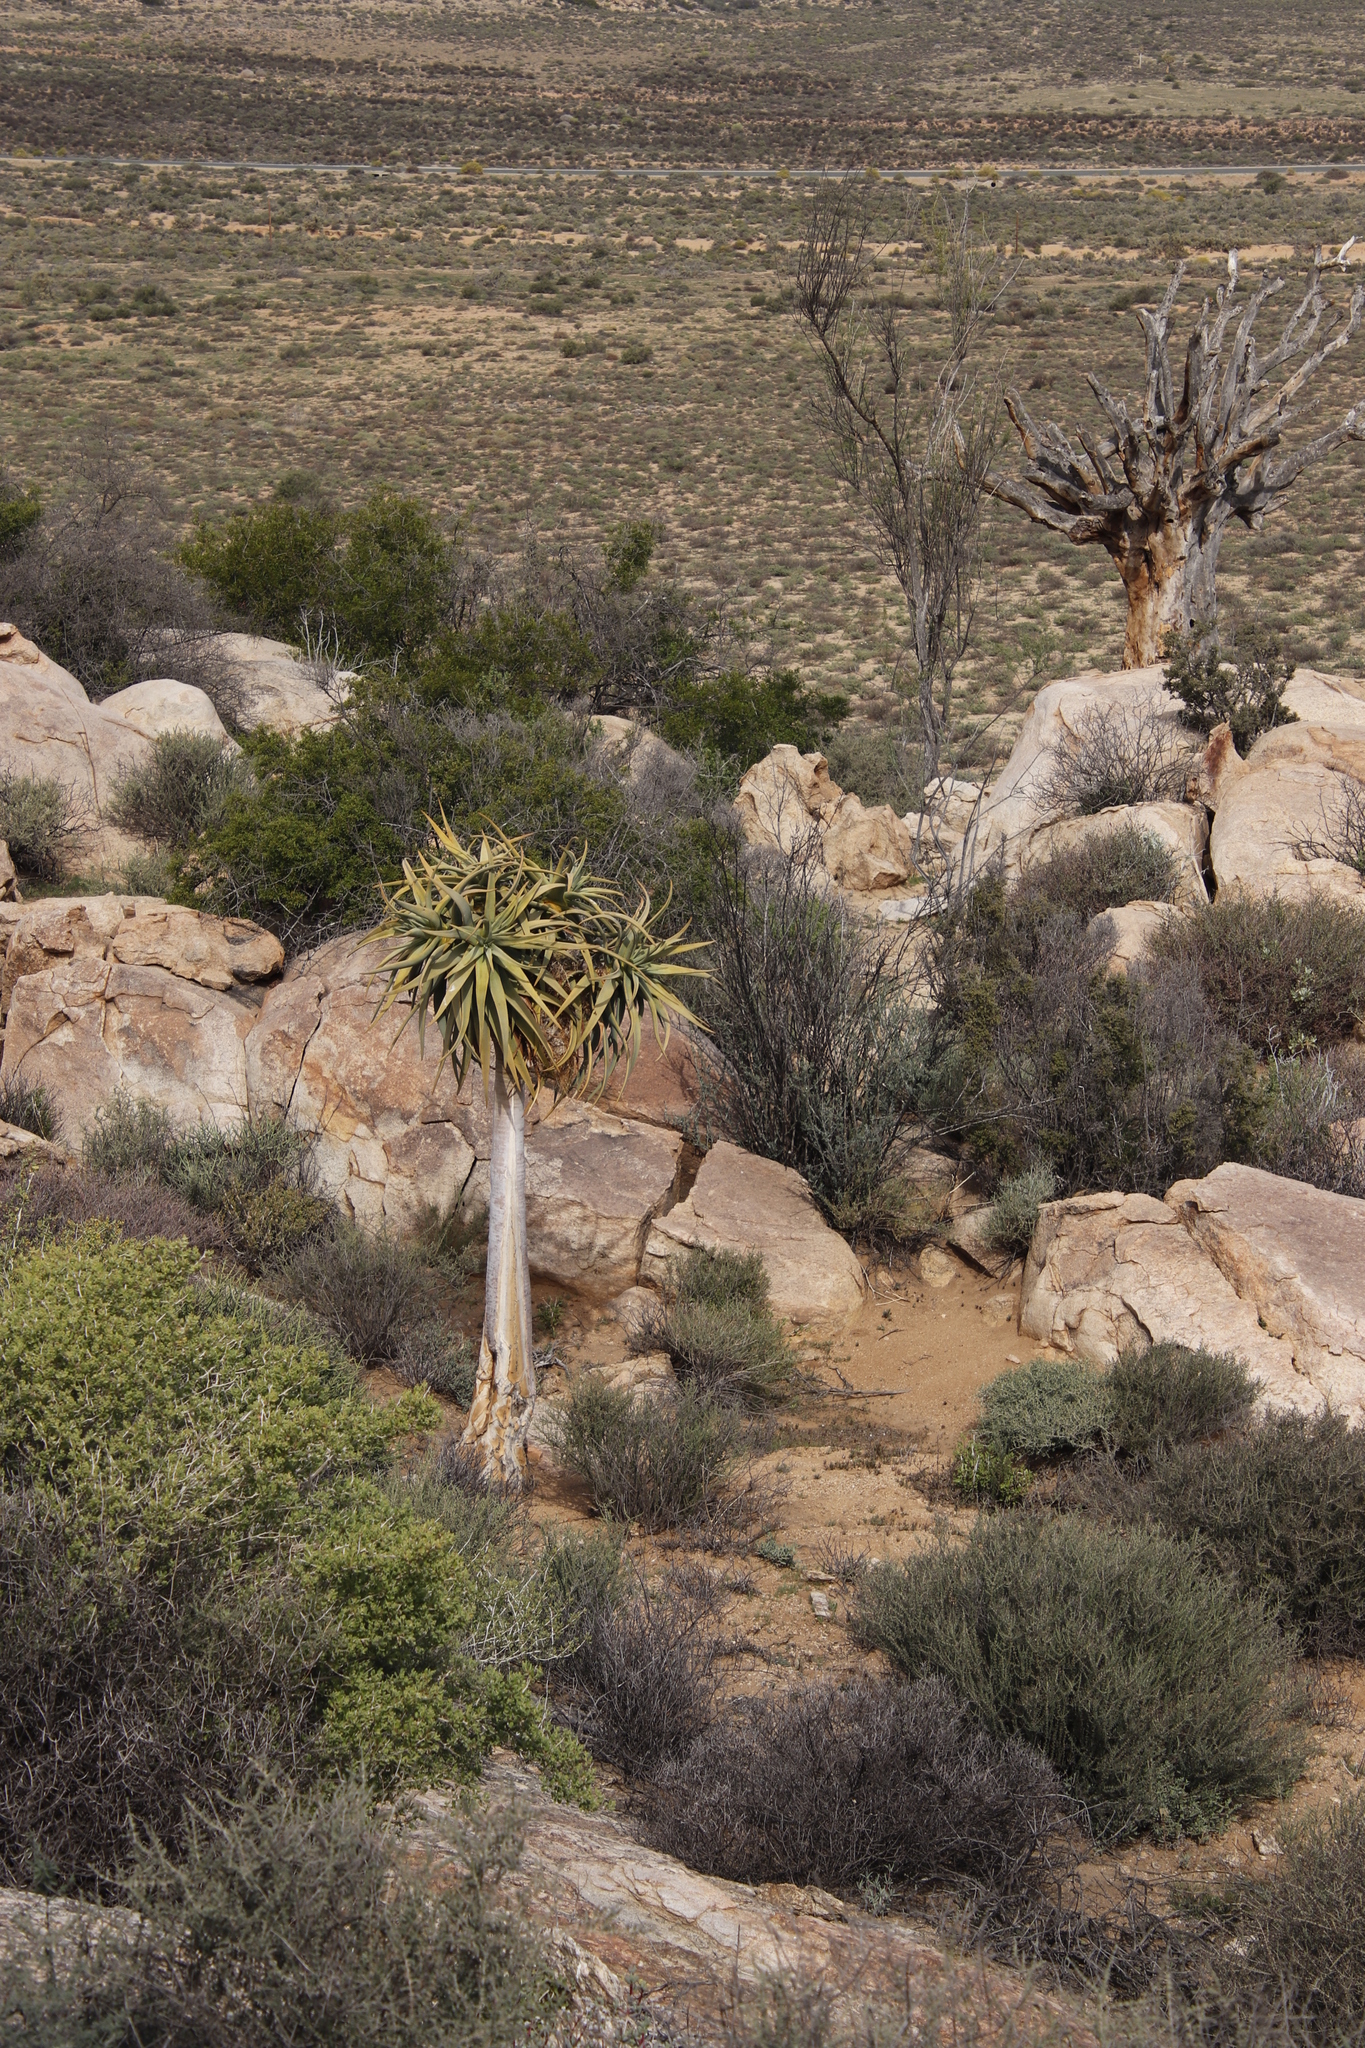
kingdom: Plantae
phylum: Tracheophyta
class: Liliopsida
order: Asparagales
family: Asphodelaceae
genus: Aloidendron
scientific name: Aloidendron dichotomum
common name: Quiver tree
